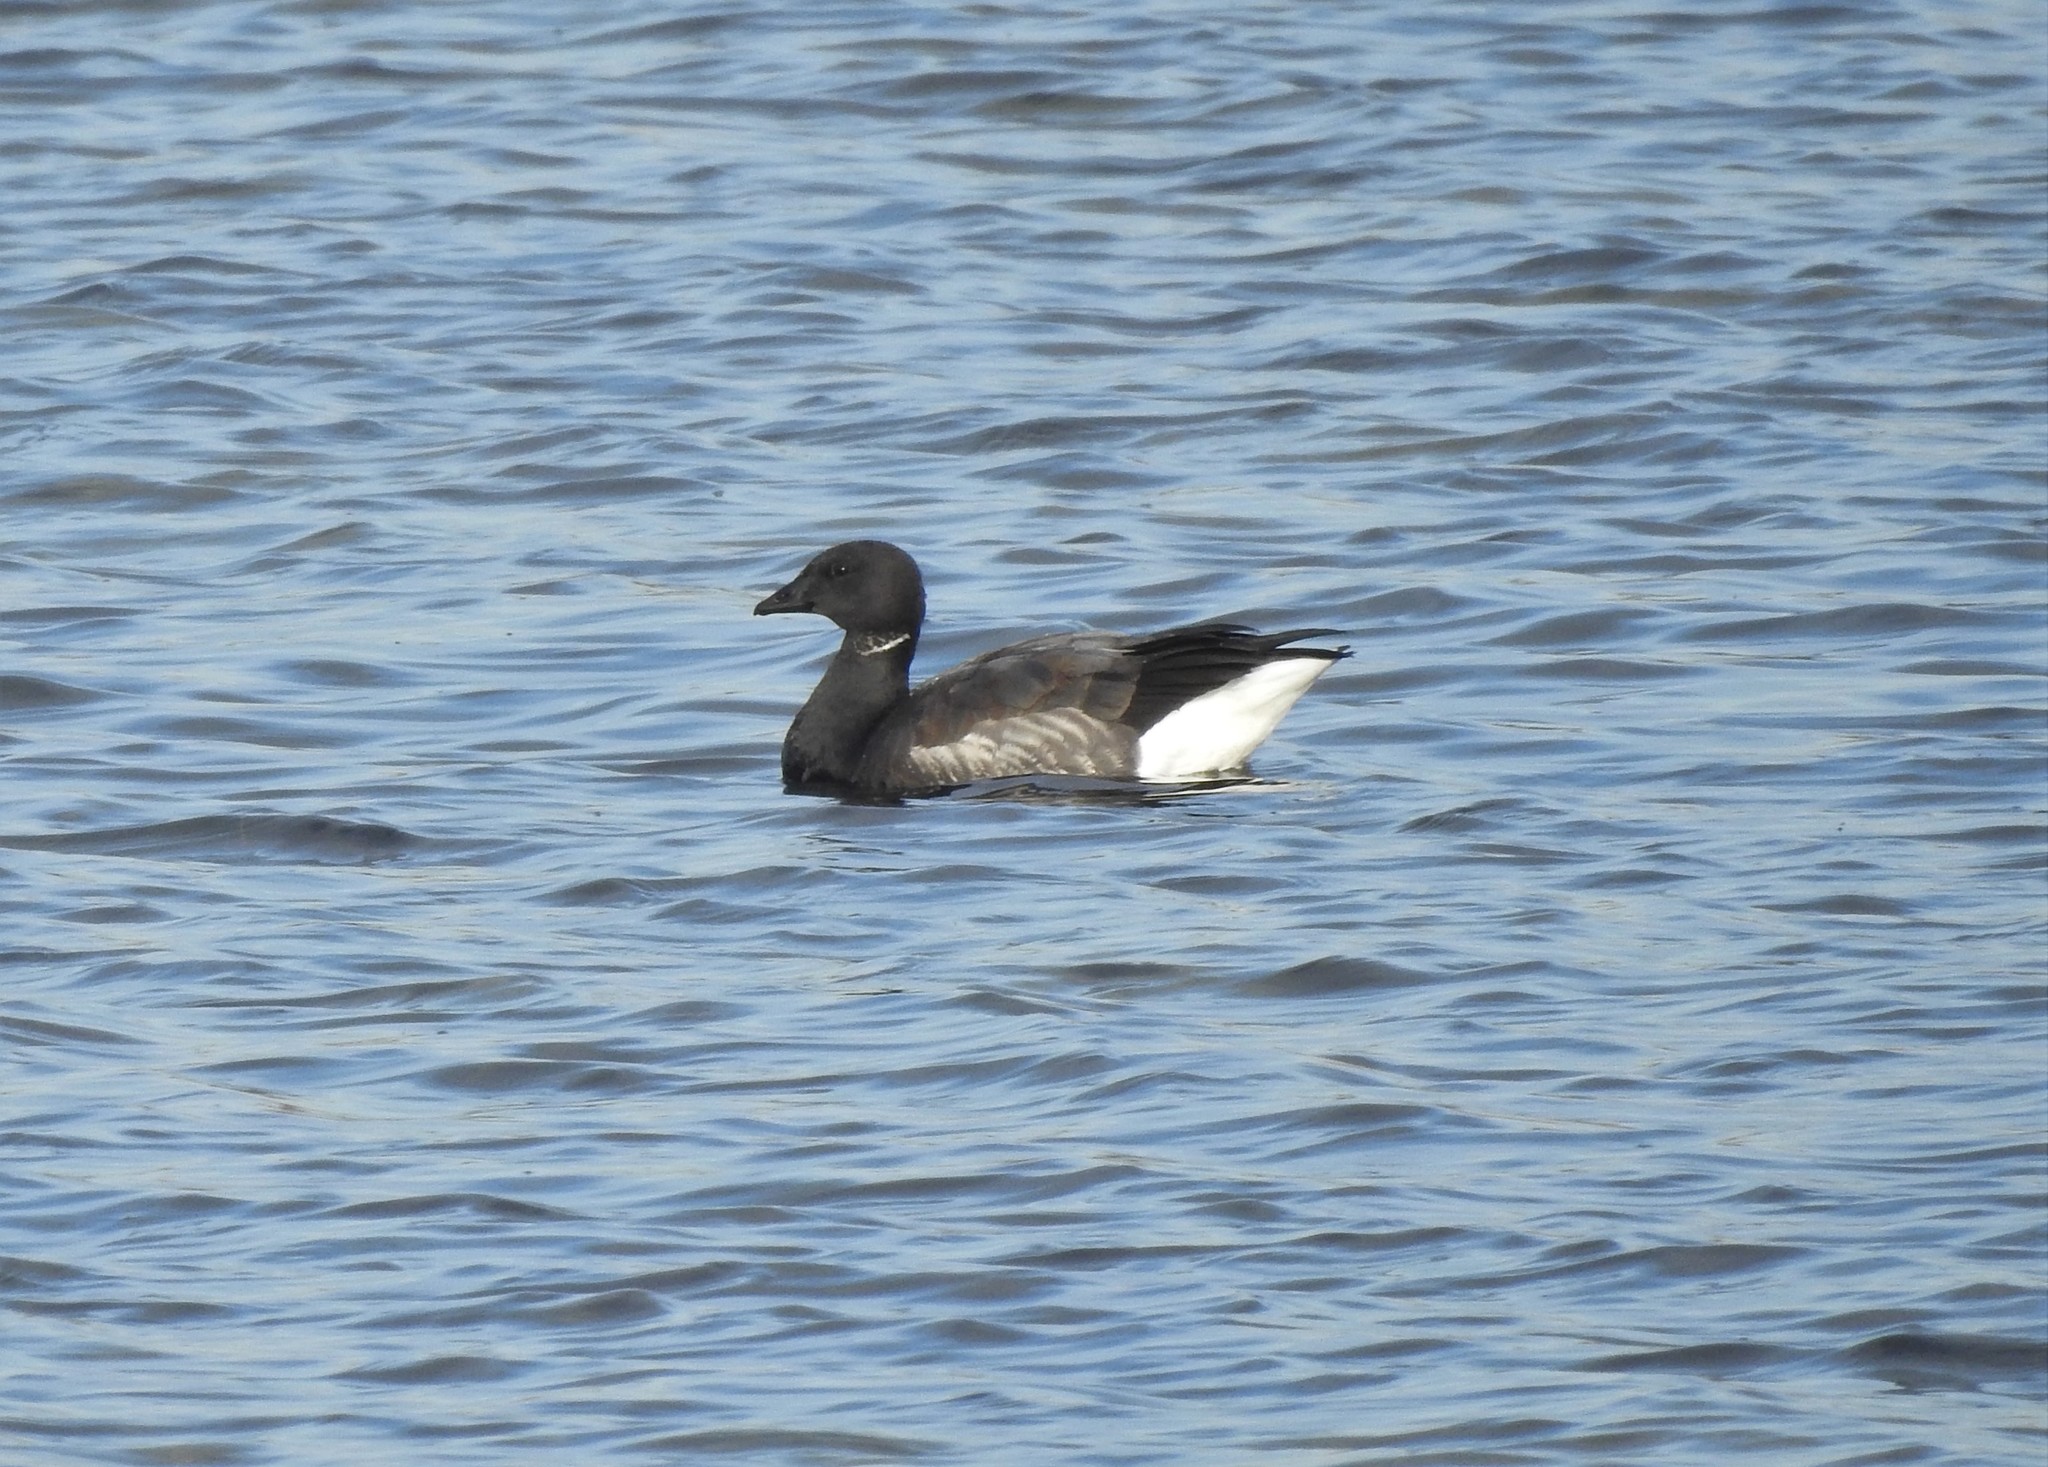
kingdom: Animalia
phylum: Chordata
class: Aves
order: Anseriformes
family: Anatidae
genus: Branta
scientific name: Branta bernicla
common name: Brant goose
